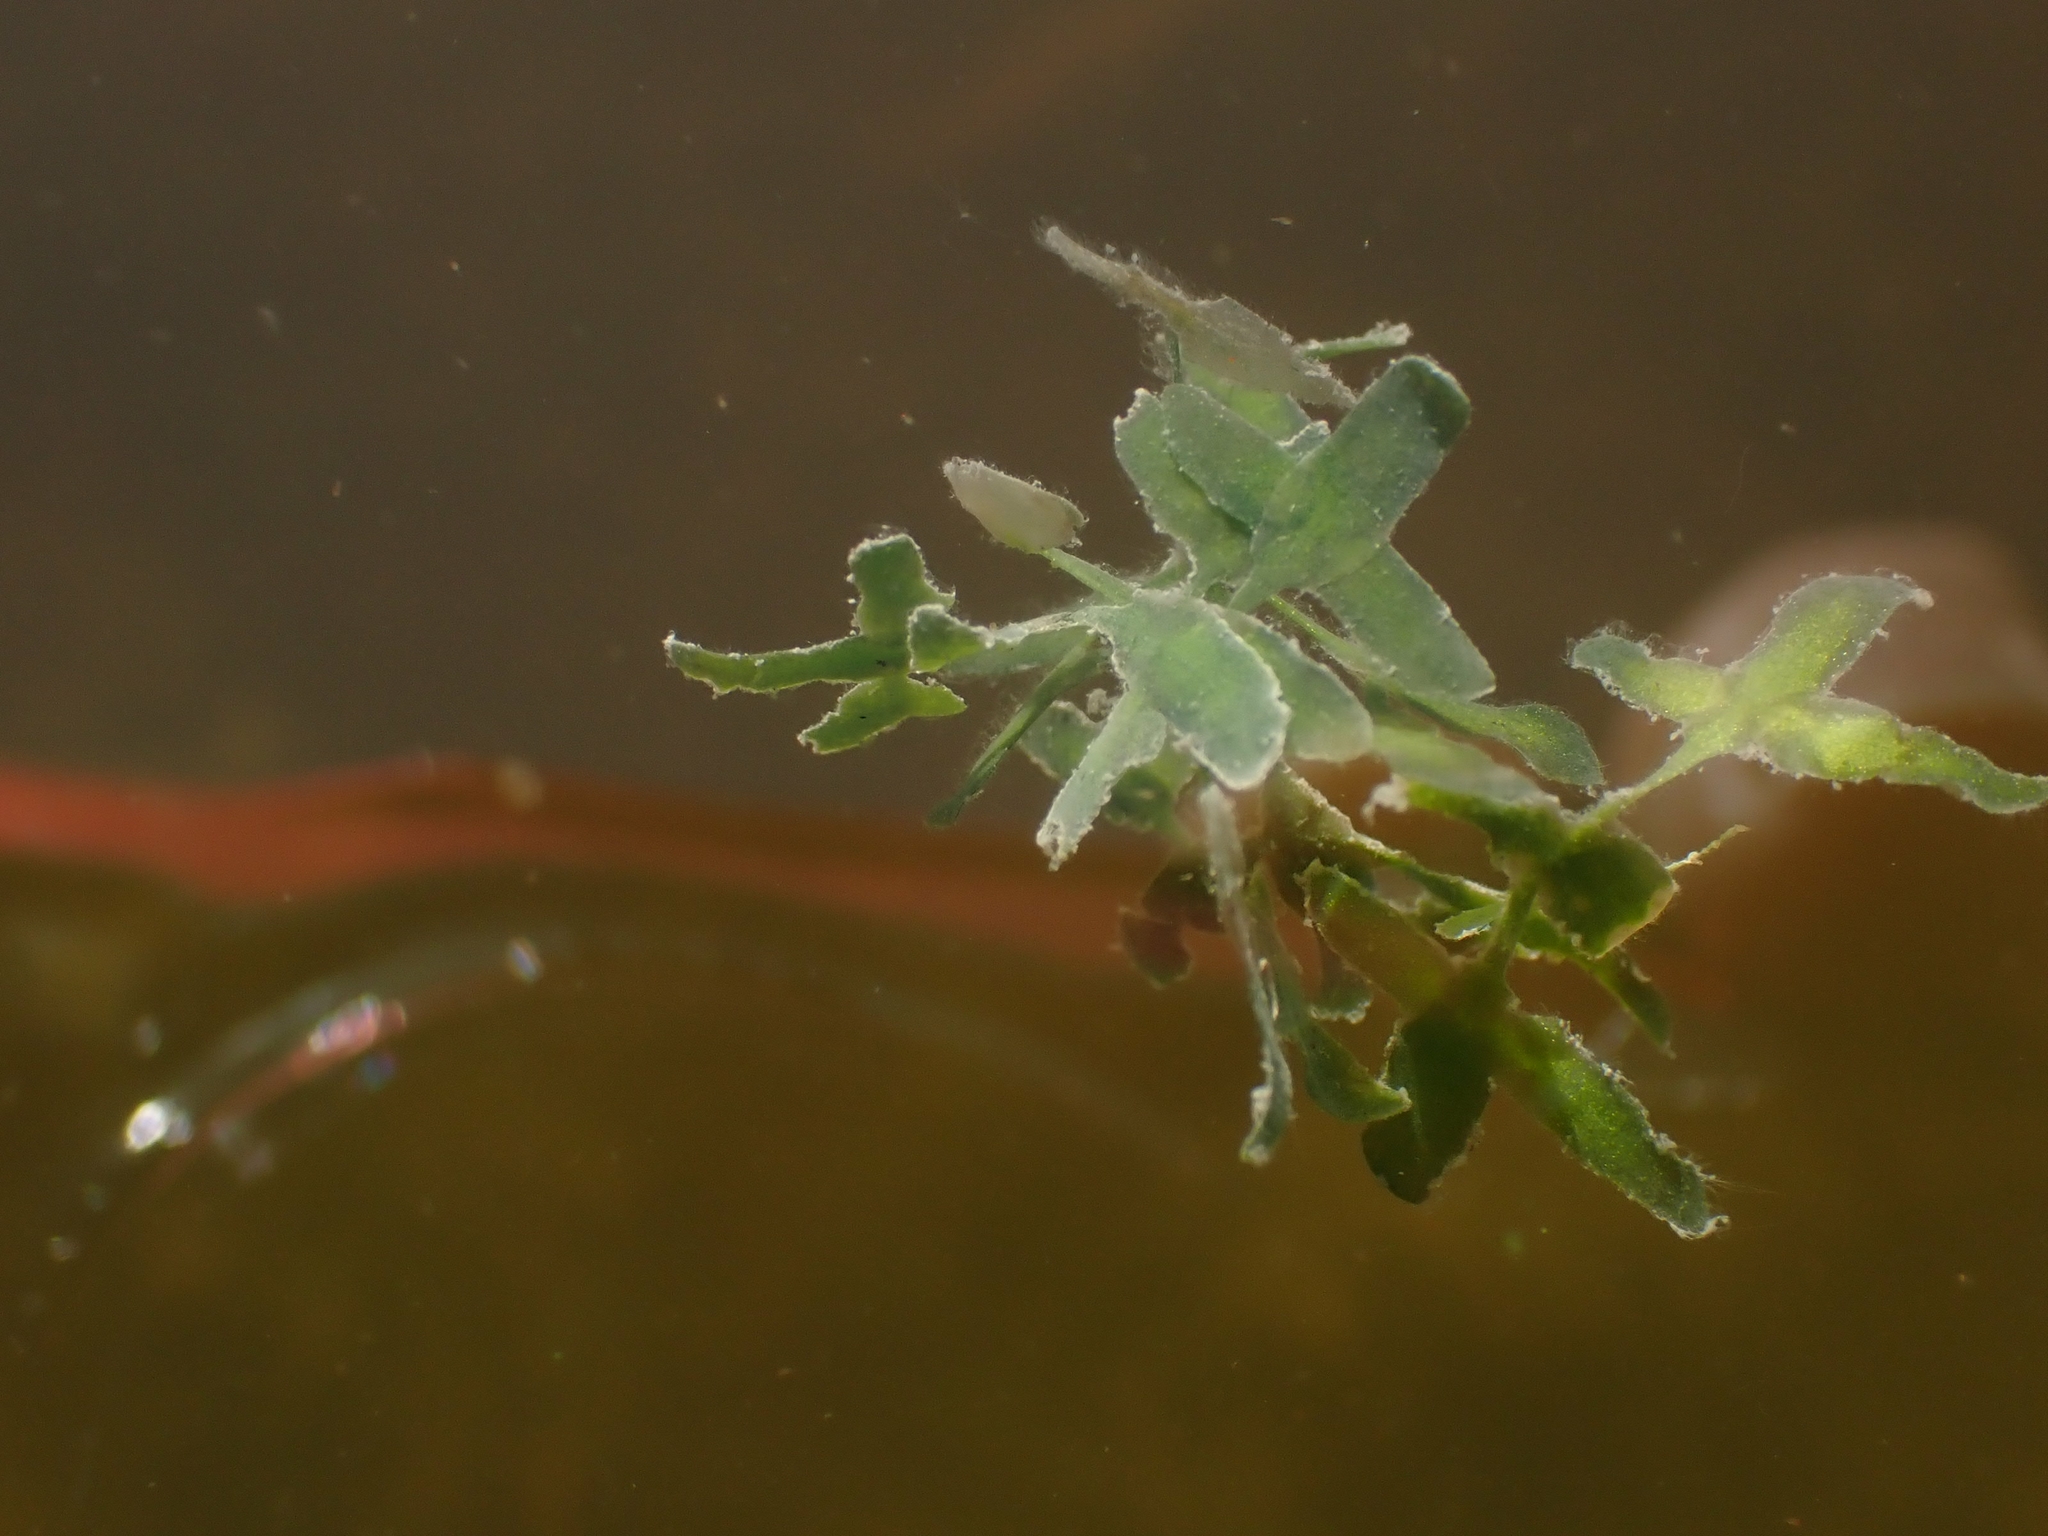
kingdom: Plantae
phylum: Tracheophyta
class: Liliopsida
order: Alismatales
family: Araceae
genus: Lemna
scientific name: Lemna trisulca
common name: Ivy-leaved duckweed
